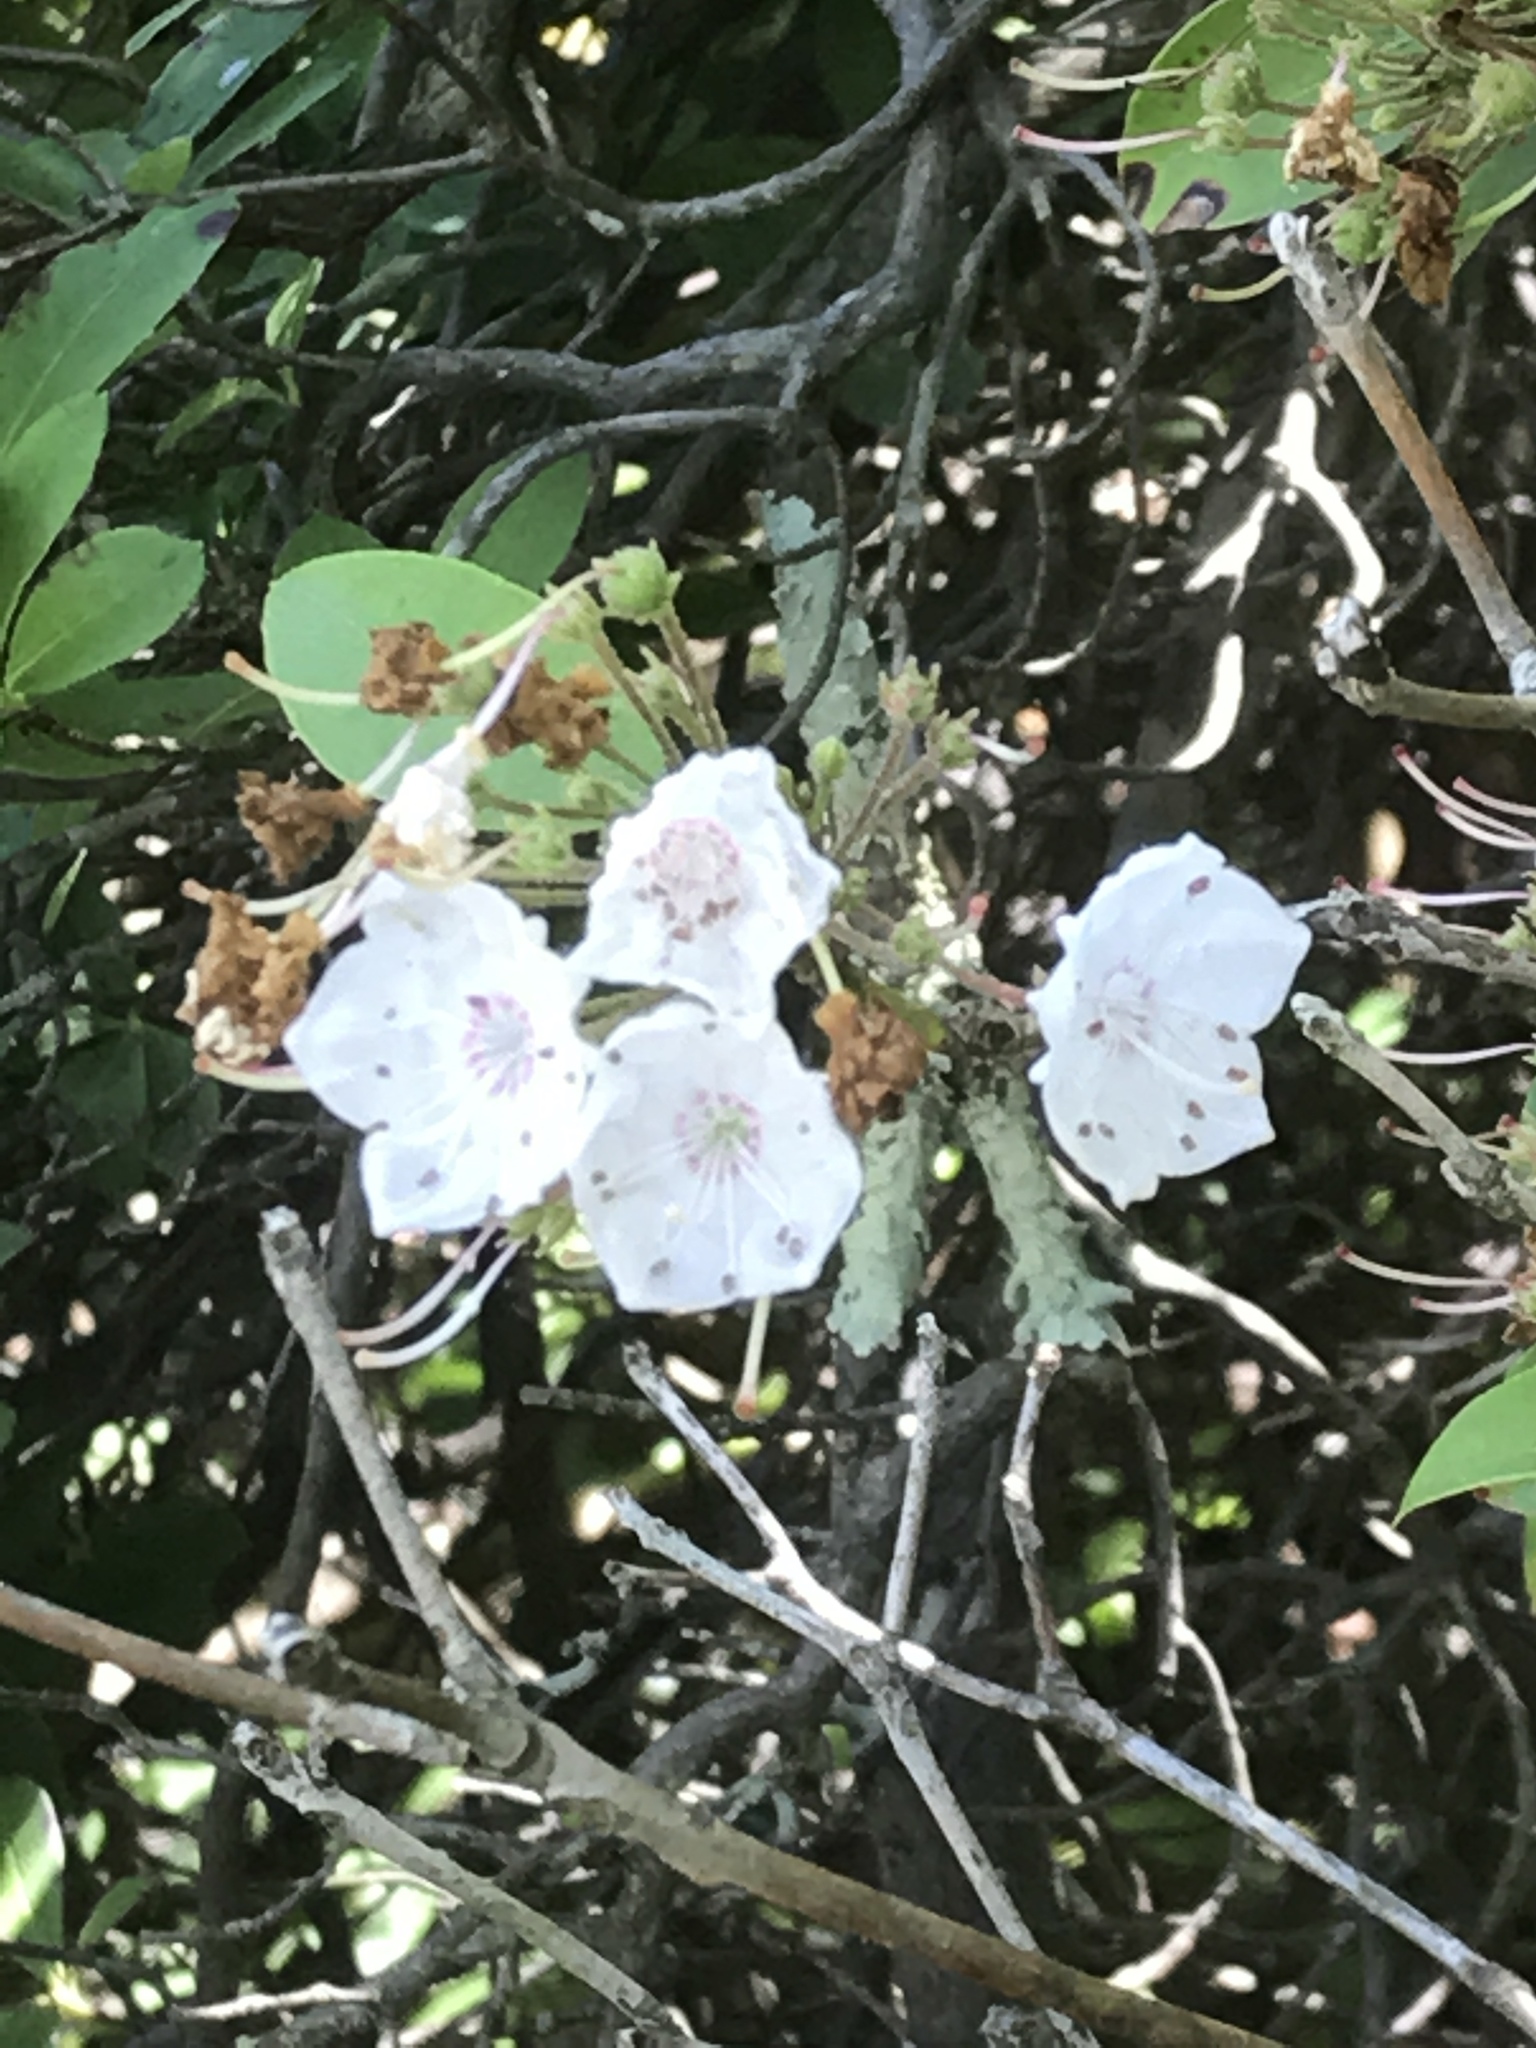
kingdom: Plantae
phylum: Tracheophyta
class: Magnoliopsida
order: Ericales
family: Ericaceae
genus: Kalmia
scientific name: Kalmia latifolia
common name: Mountain-laurel
